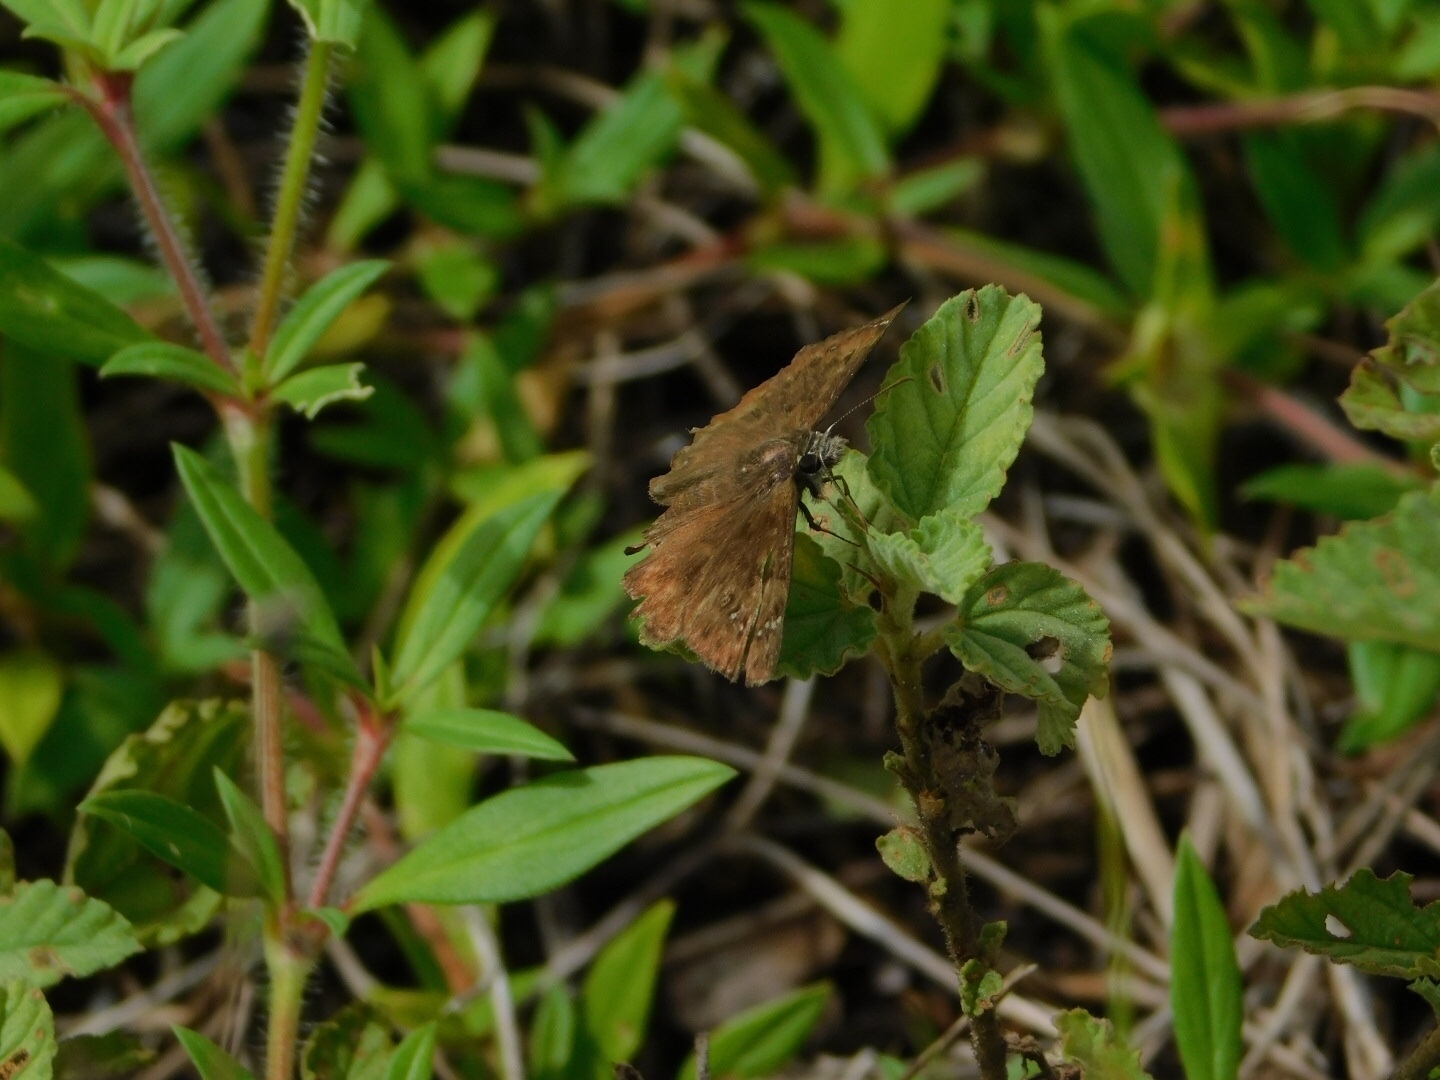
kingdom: Animalia
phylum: Arthropoda
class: Insecta
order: Lepidoptera
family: Hesperiidae
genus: Erynnis
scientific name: Erynnis horatius
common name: Horace's duskywing
